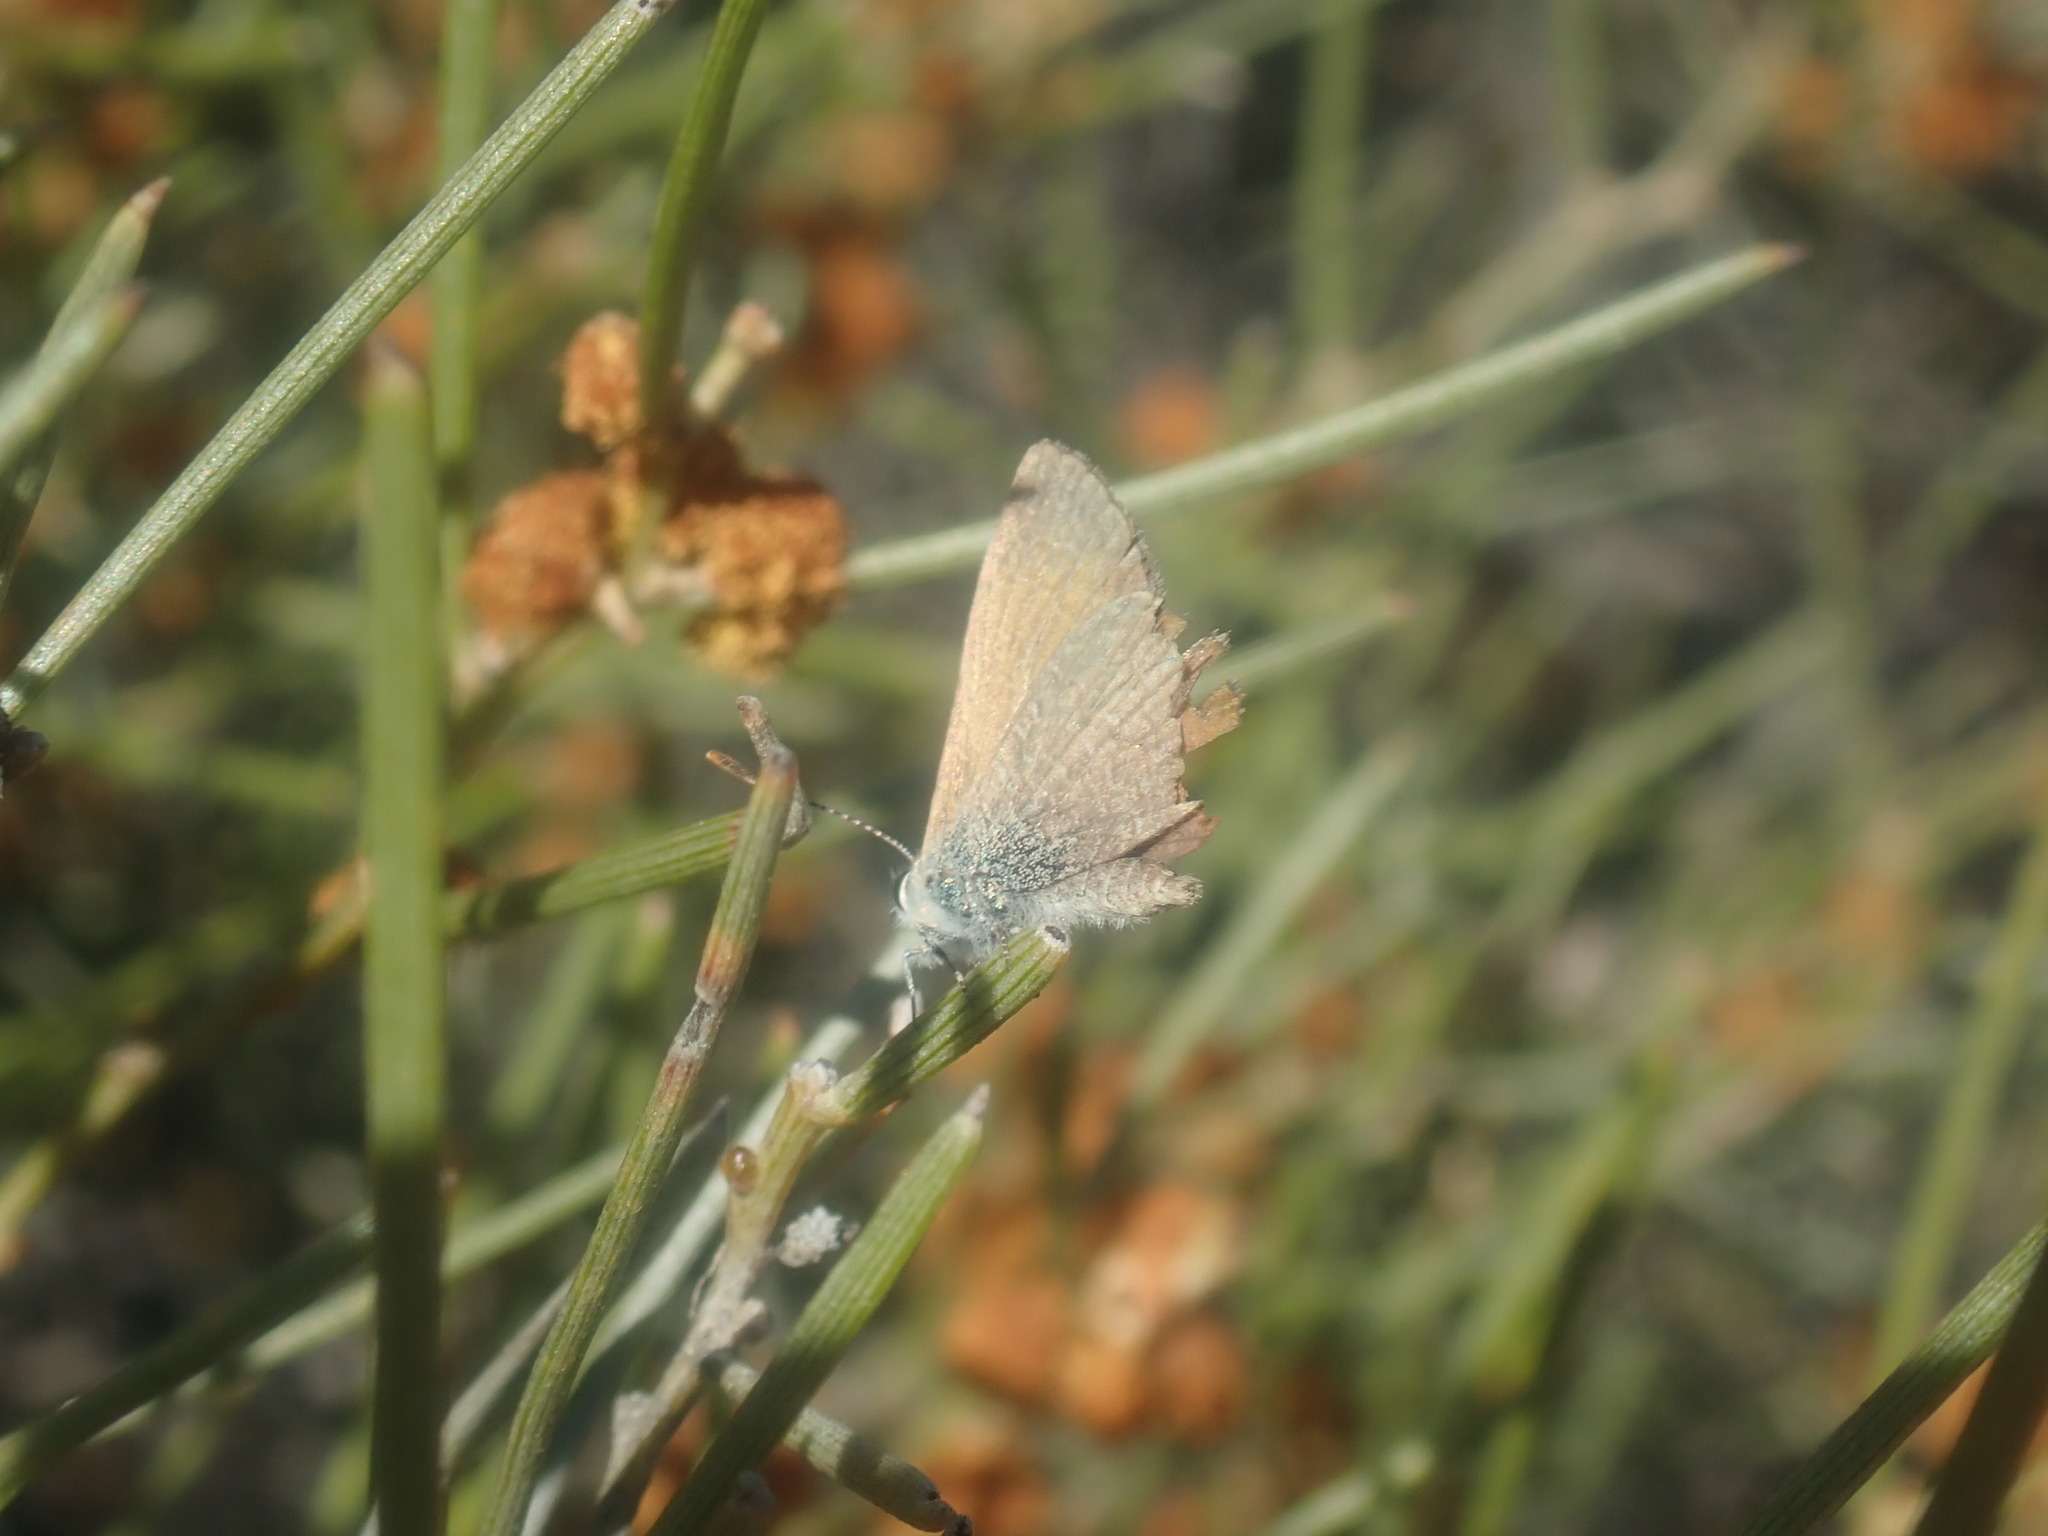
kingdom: Animalia
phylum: Arthropoda
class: Insecta
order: Lepidoptera
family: Lycaenidae
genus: Nacaduba
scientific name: Nacaduba biocellata
